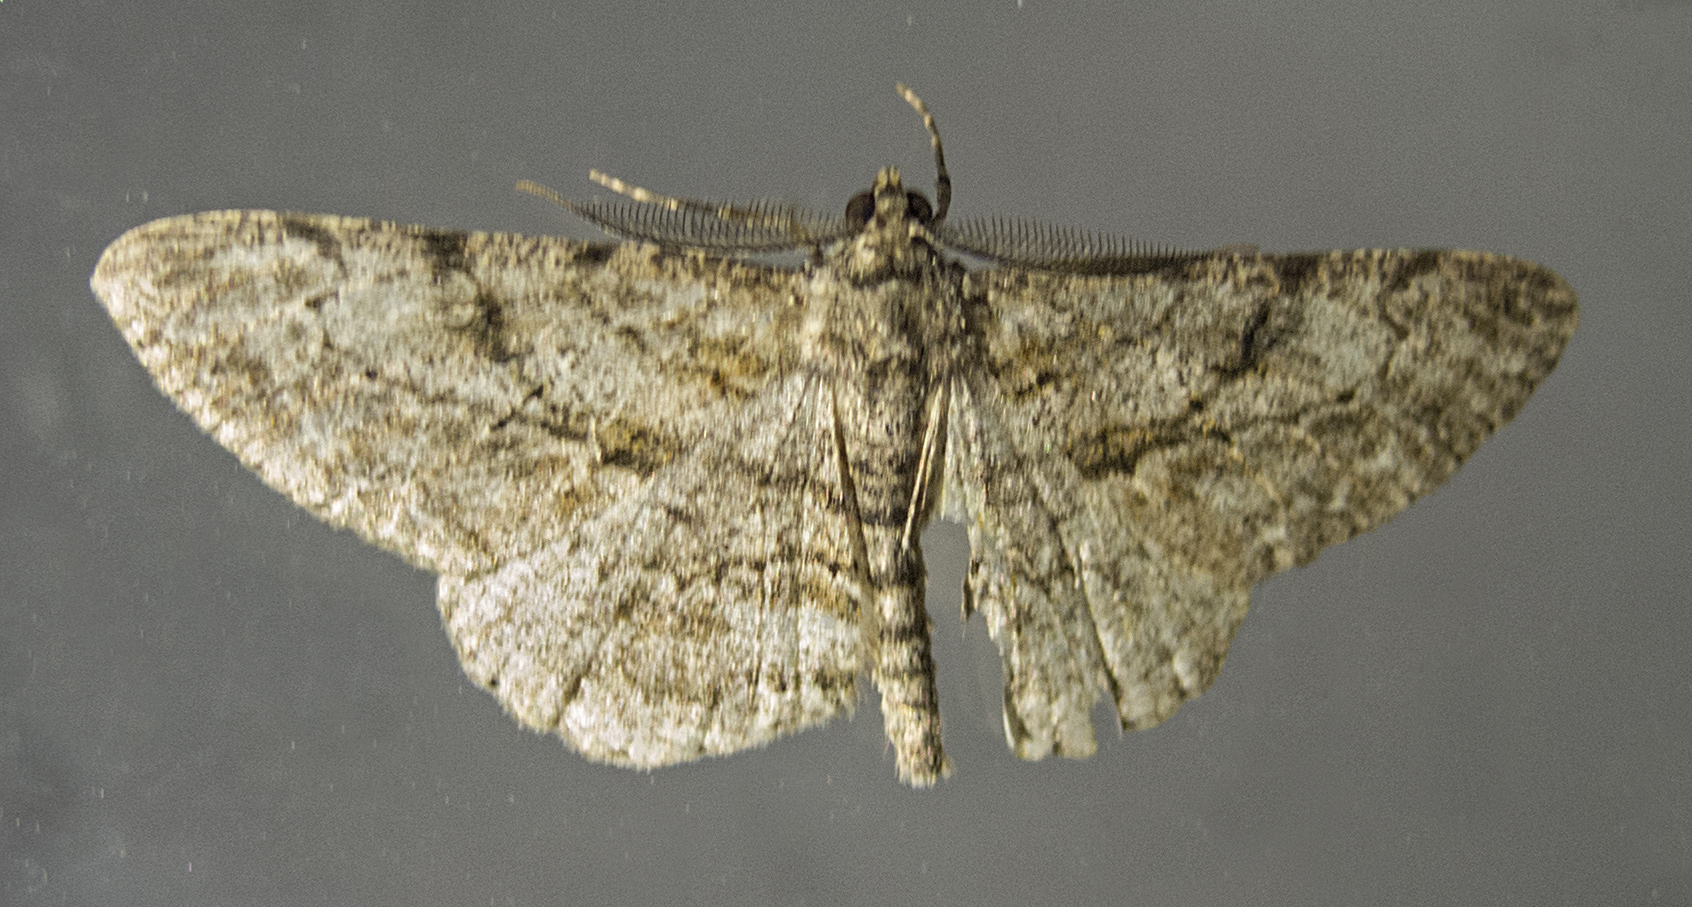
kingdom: Animalia
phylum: Arthropoda
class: Insecta
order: Lepidoptera
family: Geometridae
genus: Peribatodes
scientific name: Peribatodes rhomboidaria
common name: Willow beauty
